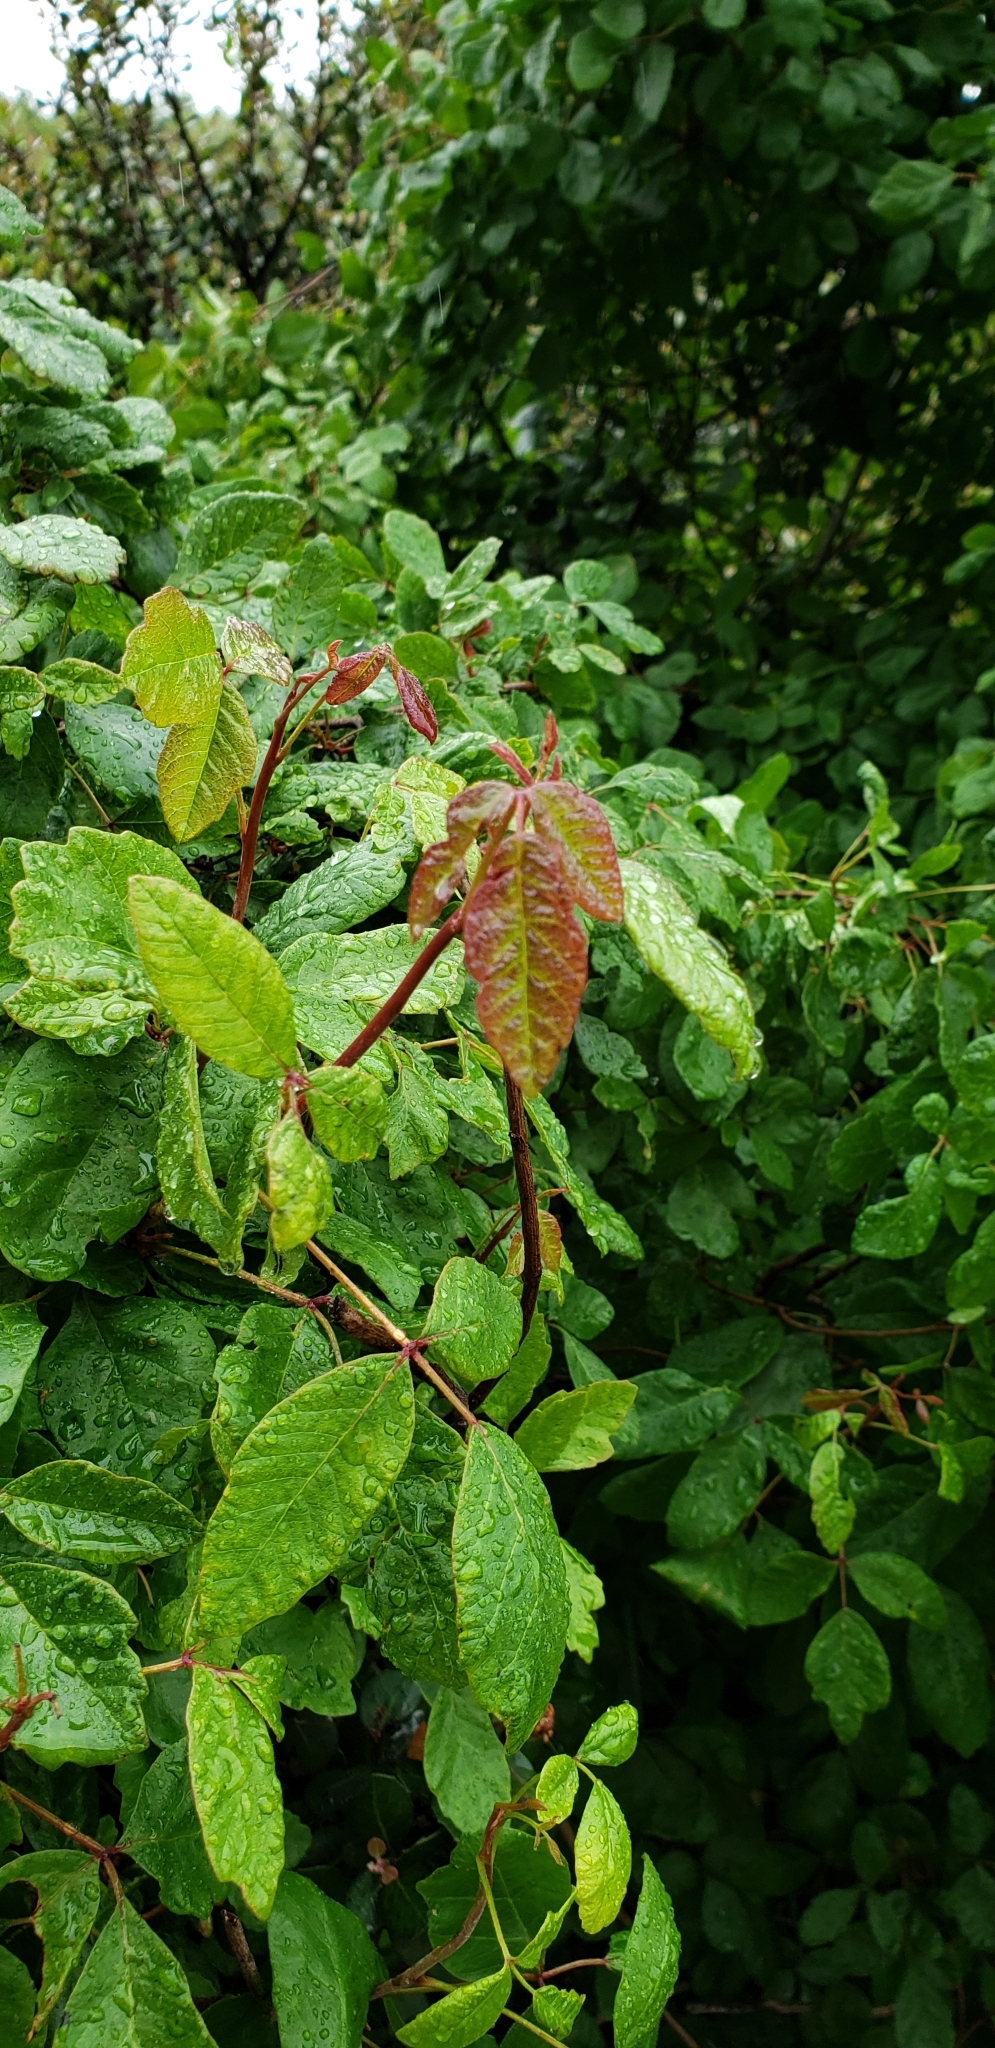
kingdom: Plantae
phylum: Tracheophyta
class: Magnoliopsida
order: Sapindales
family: Anacardiaceae
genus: Toxicodendron
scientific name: Toxicodendron diversilobum
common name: Pacific poison-oak
